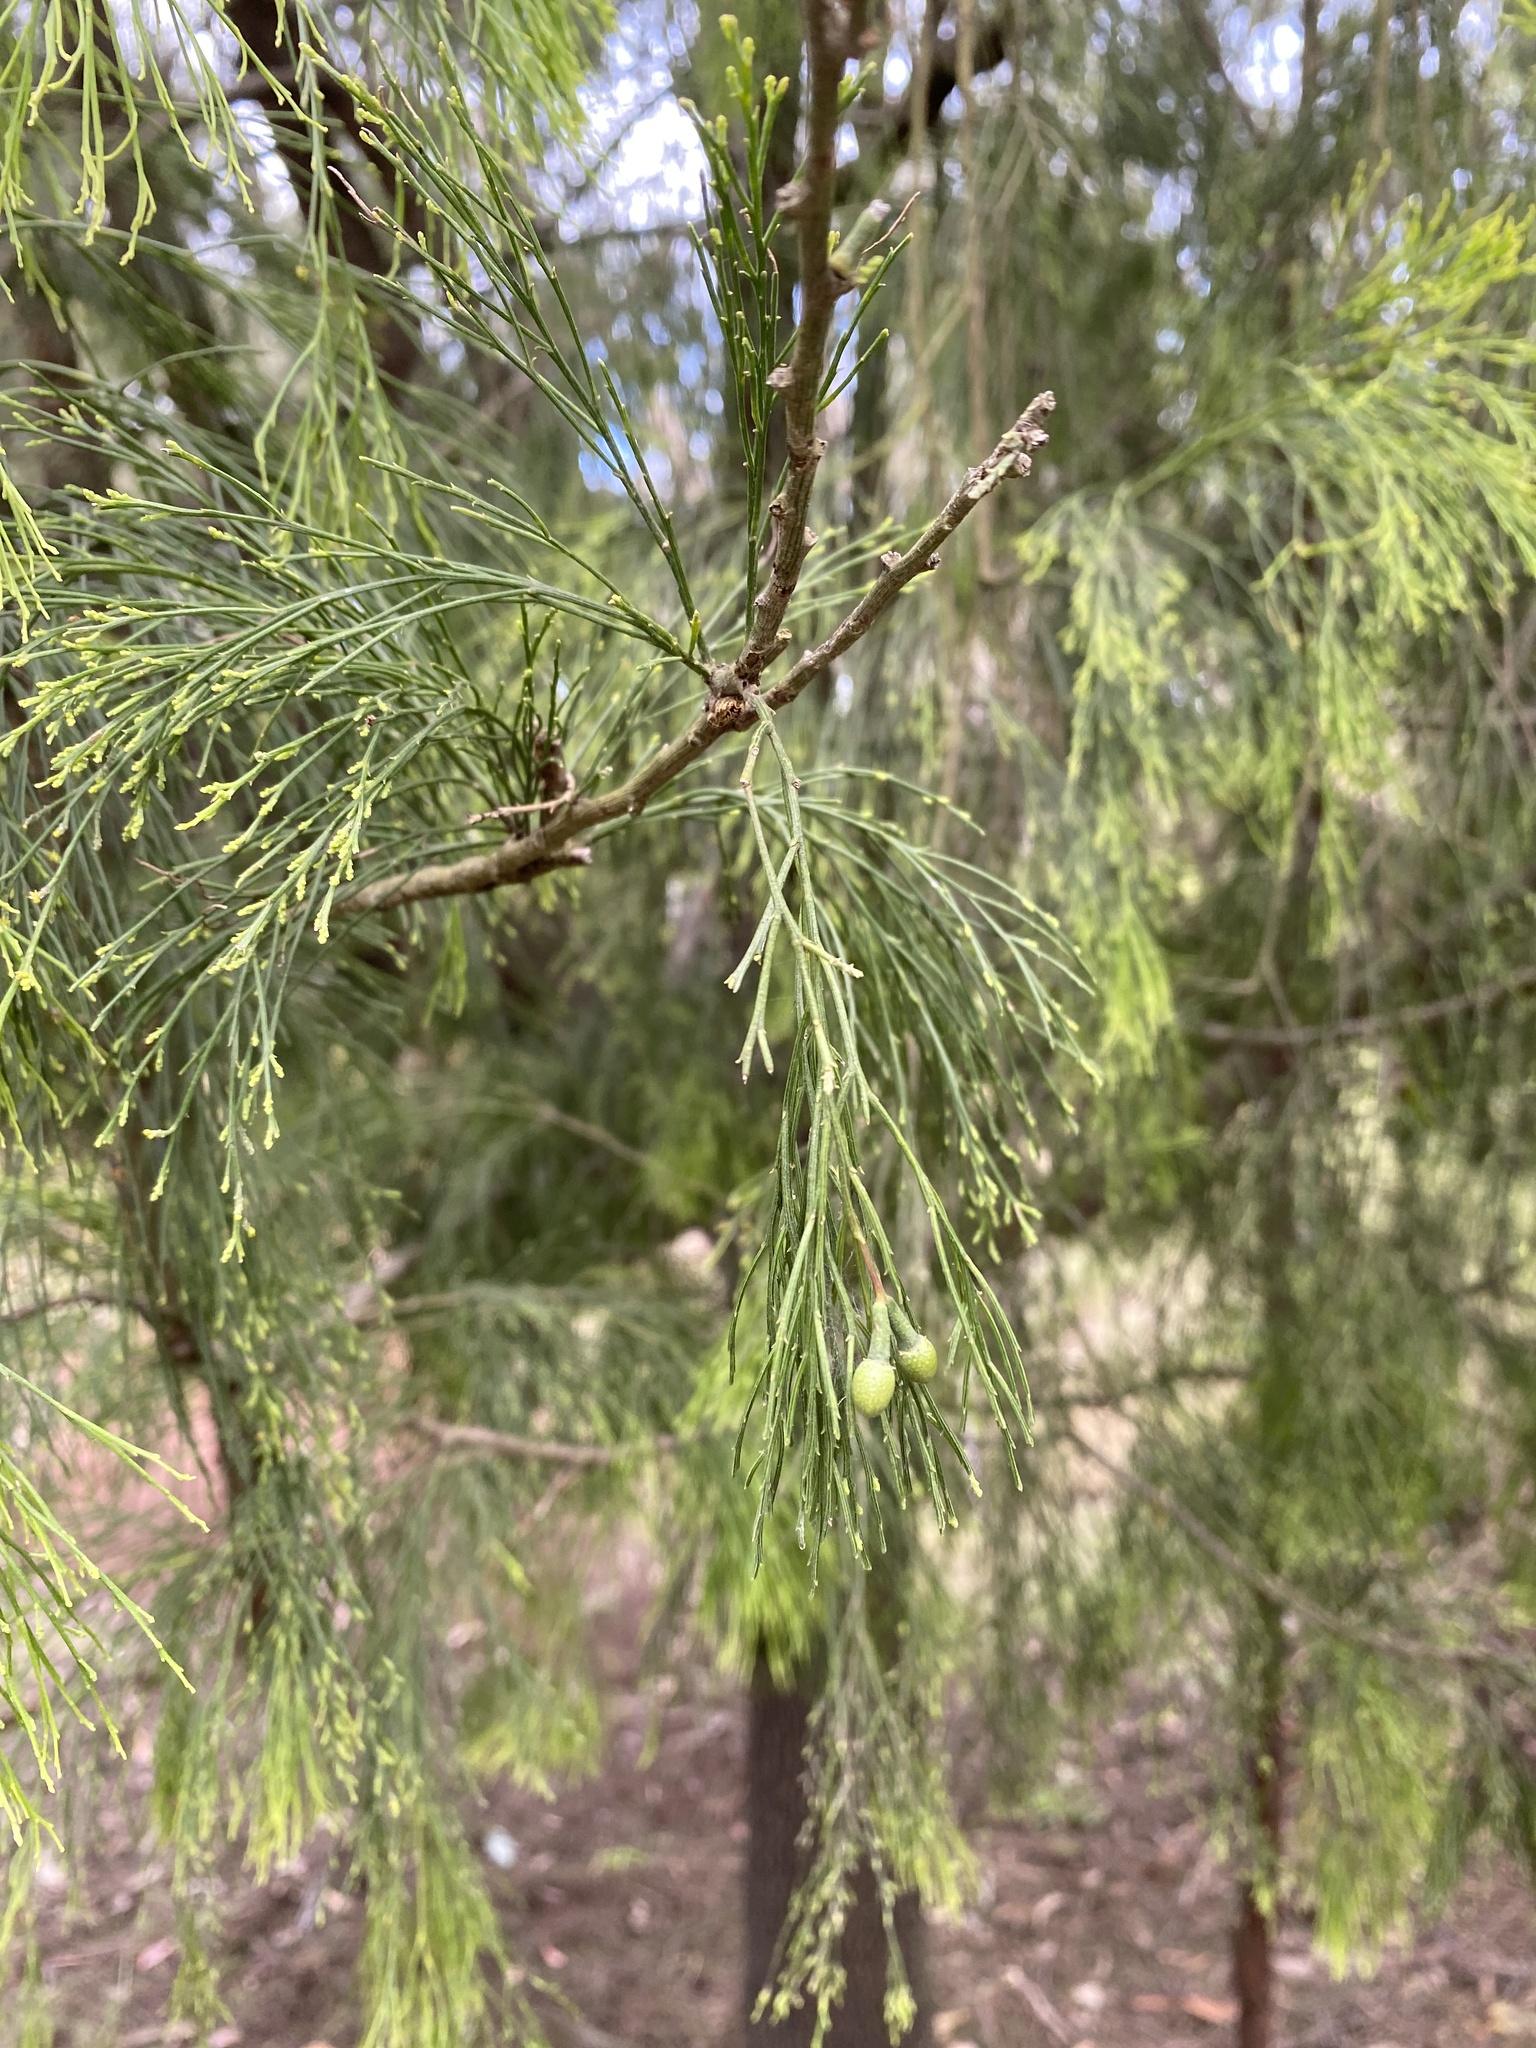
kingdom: Plantae
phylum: Tracheophyta
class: Magnoliopsida
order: Santalales
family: Santalaceae
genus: Exocarpos
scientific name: Exocarpos cupressiformis
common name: Cherry ballart
